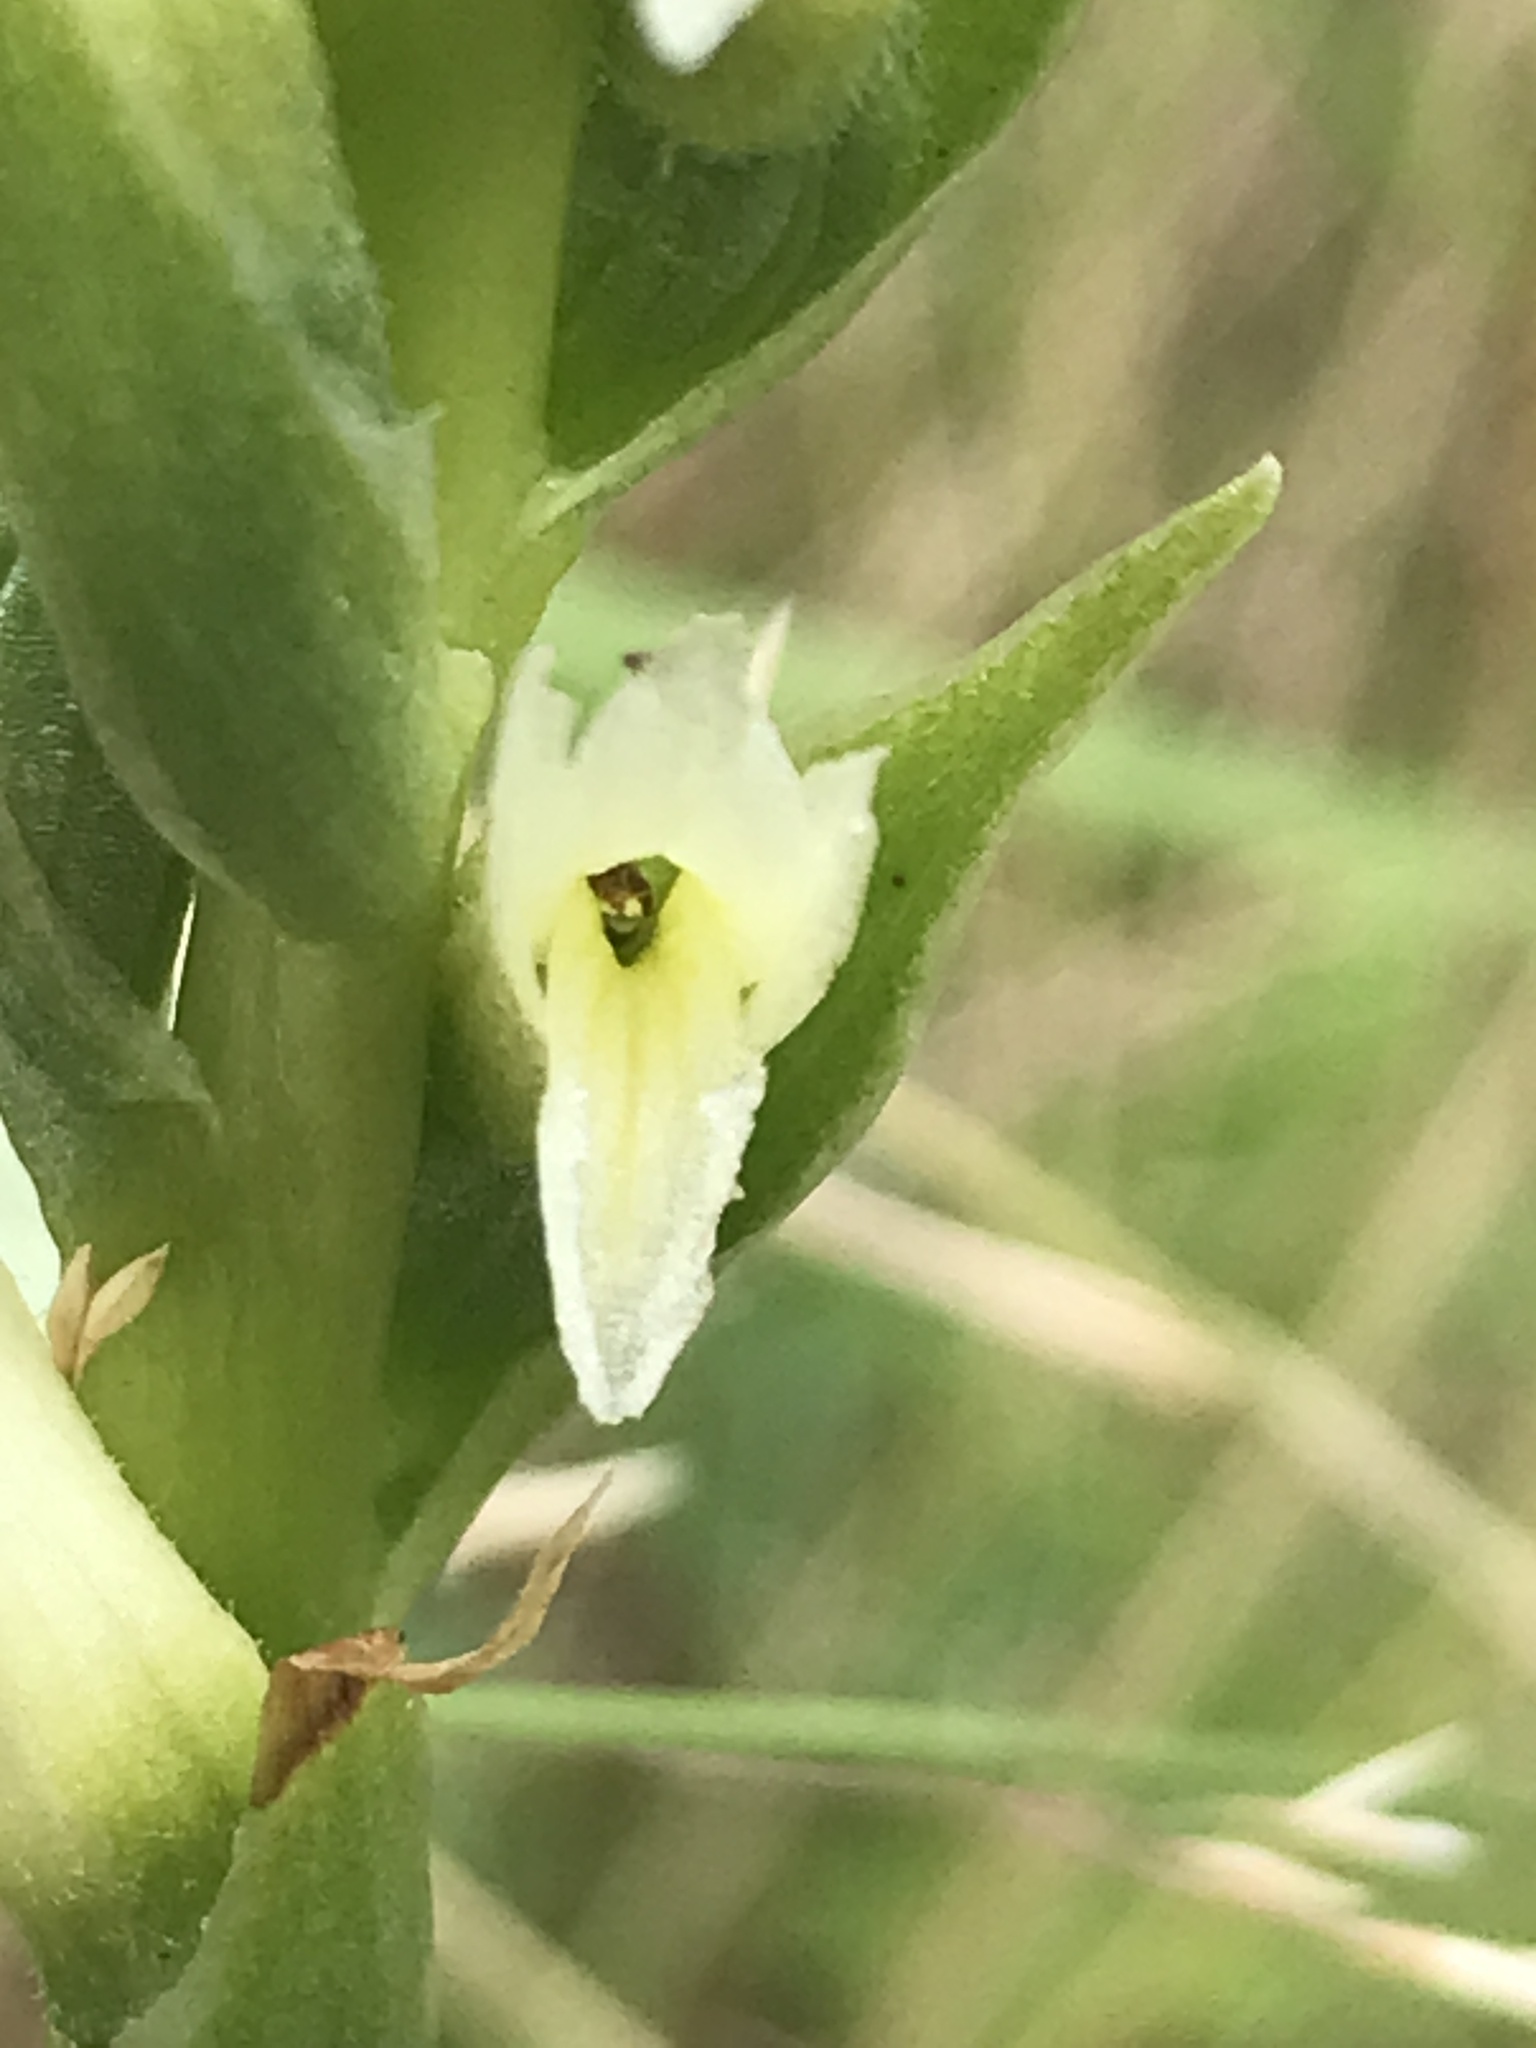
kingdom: Plantae
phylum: Tracheophyta
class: Liliopsida
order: Asparagales
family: Orchidaceae
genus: Spiranthes
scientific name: Spiranthes romanzoffiana
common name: Irish lady's-tresses
